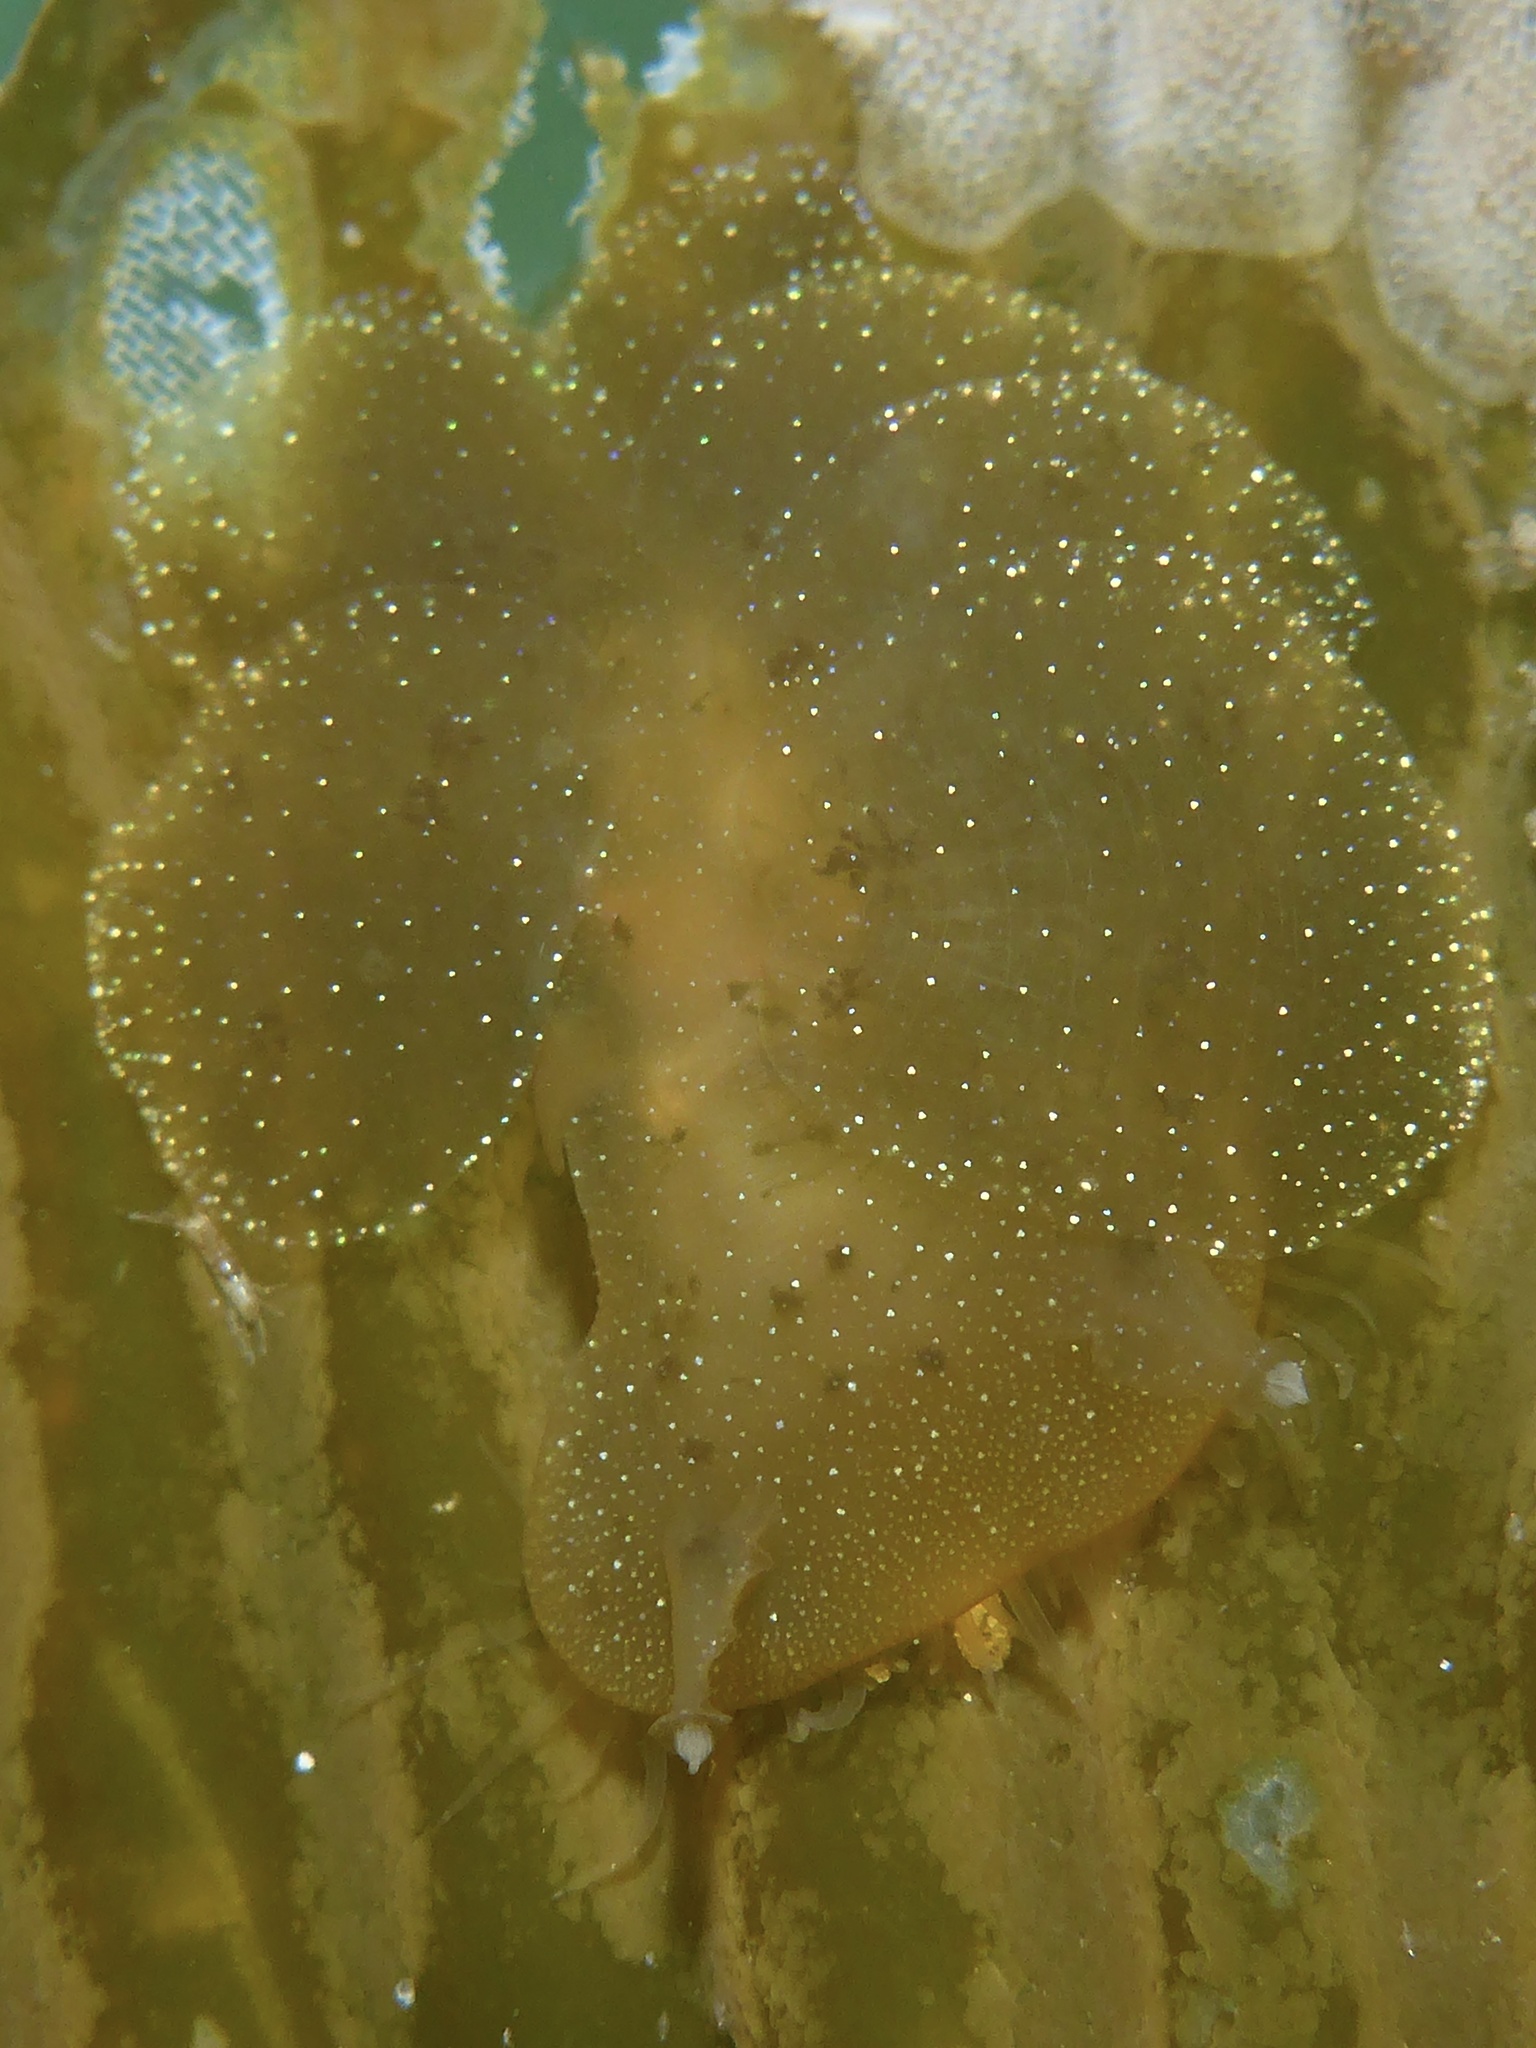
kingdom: Animalia
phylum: Mollusca
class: Gastropoda
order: Nudibranchia
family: Tethydidae
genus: Melibe
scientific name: Melibe leonina
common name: Lion nudibranch
